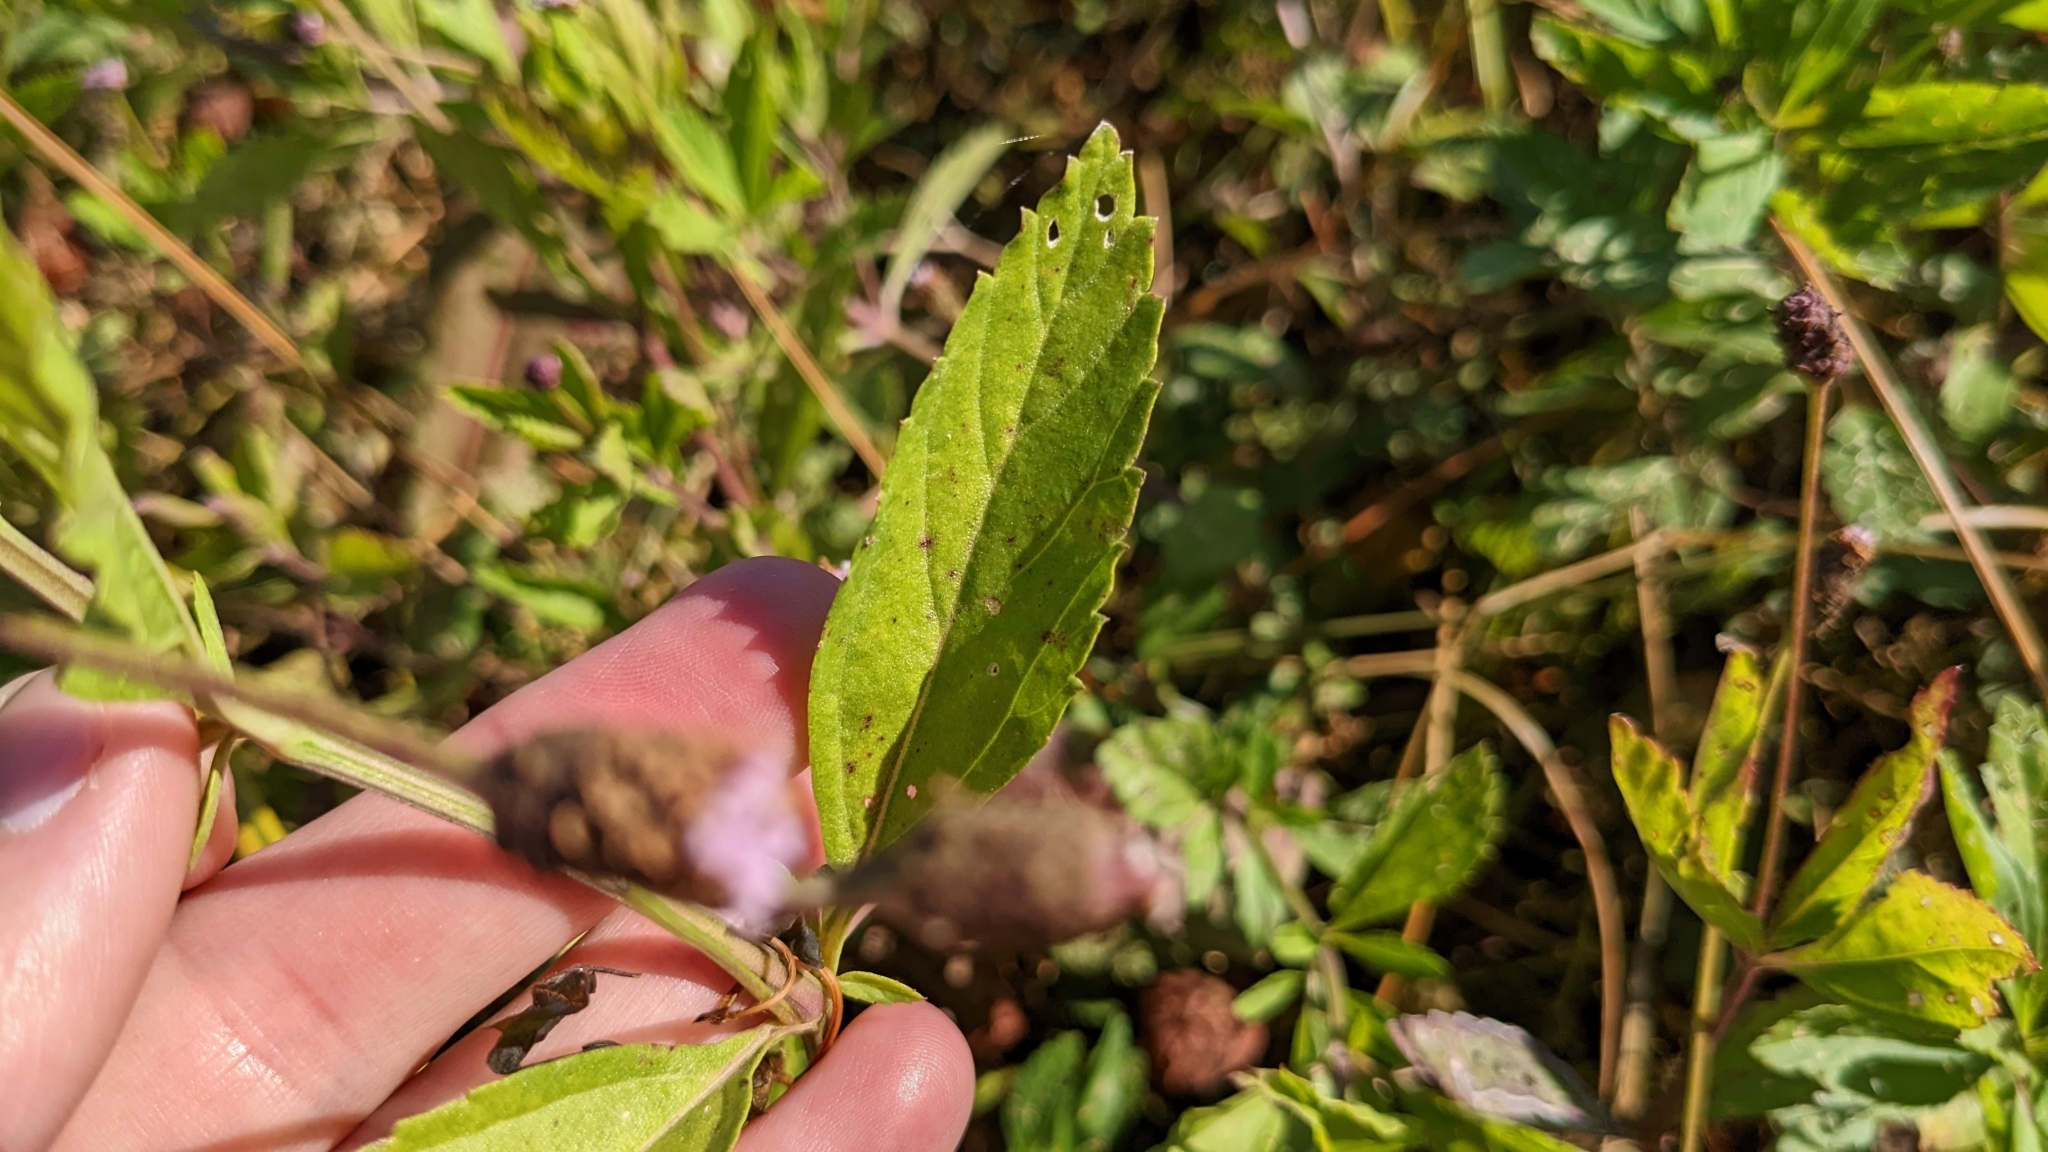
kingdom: Plantae
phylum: Tracheophyta
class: Magnoliopsida
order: Lamiales
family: Verbenaceae
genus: Phyla
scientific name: Phyla lanceolata
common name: Northern fogfruit
